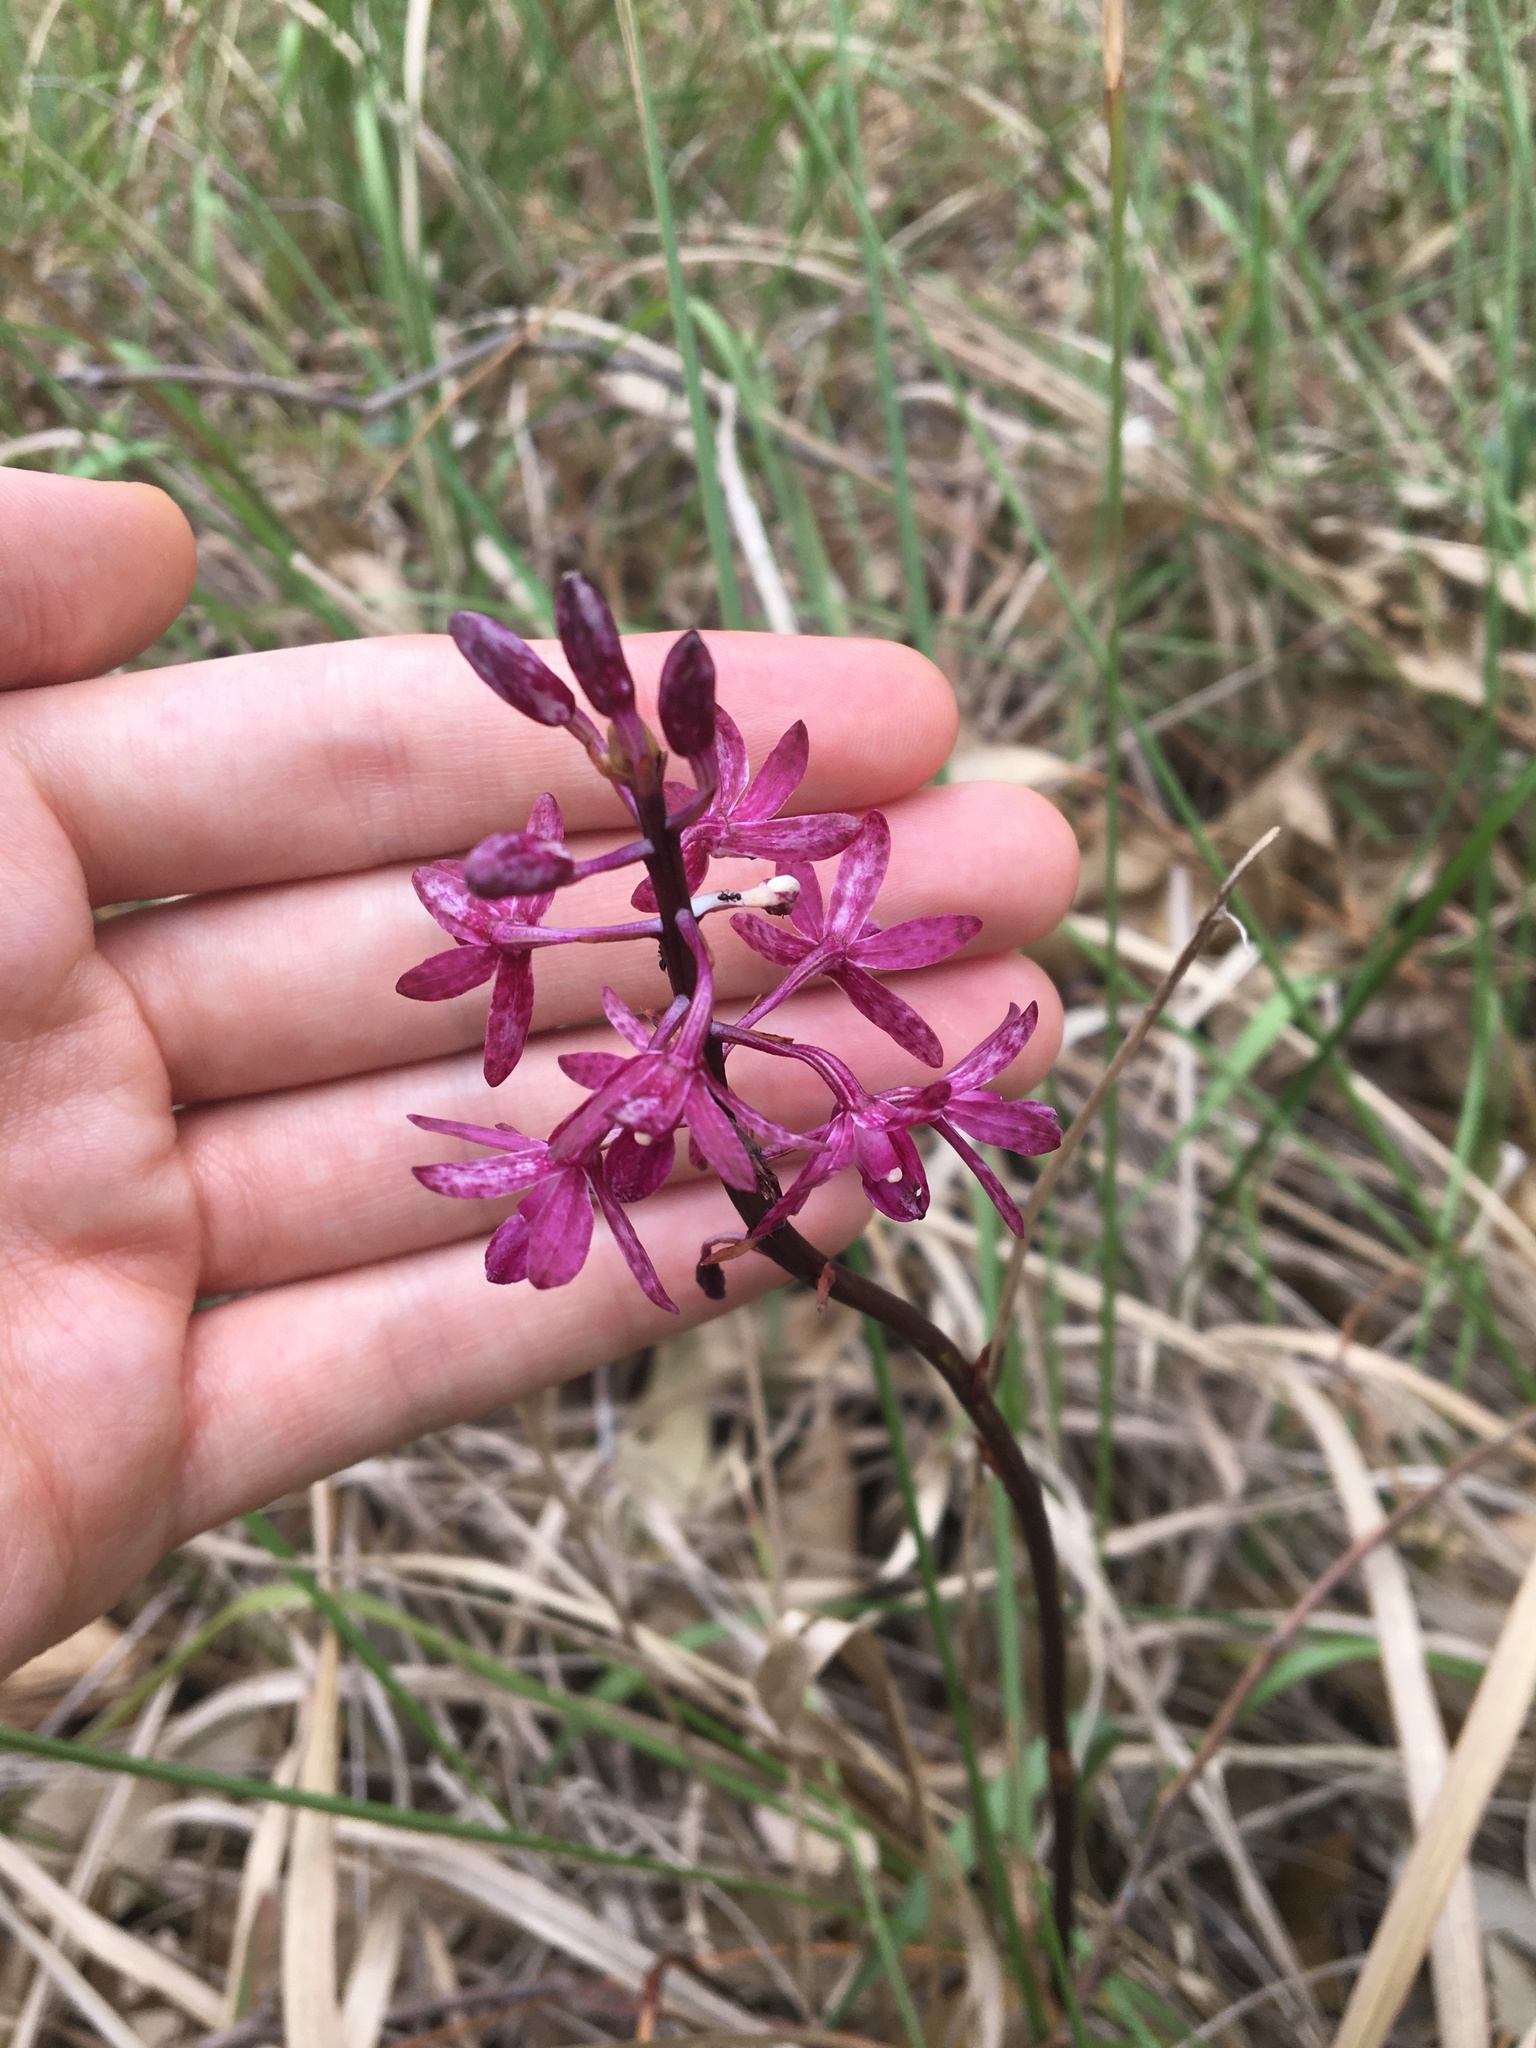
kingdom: Plantae
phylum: Tracheophyta
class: Liliopsida
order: Asparagales
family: Orchidaceae
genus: Dipodium
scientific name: Dipodium squamatum
